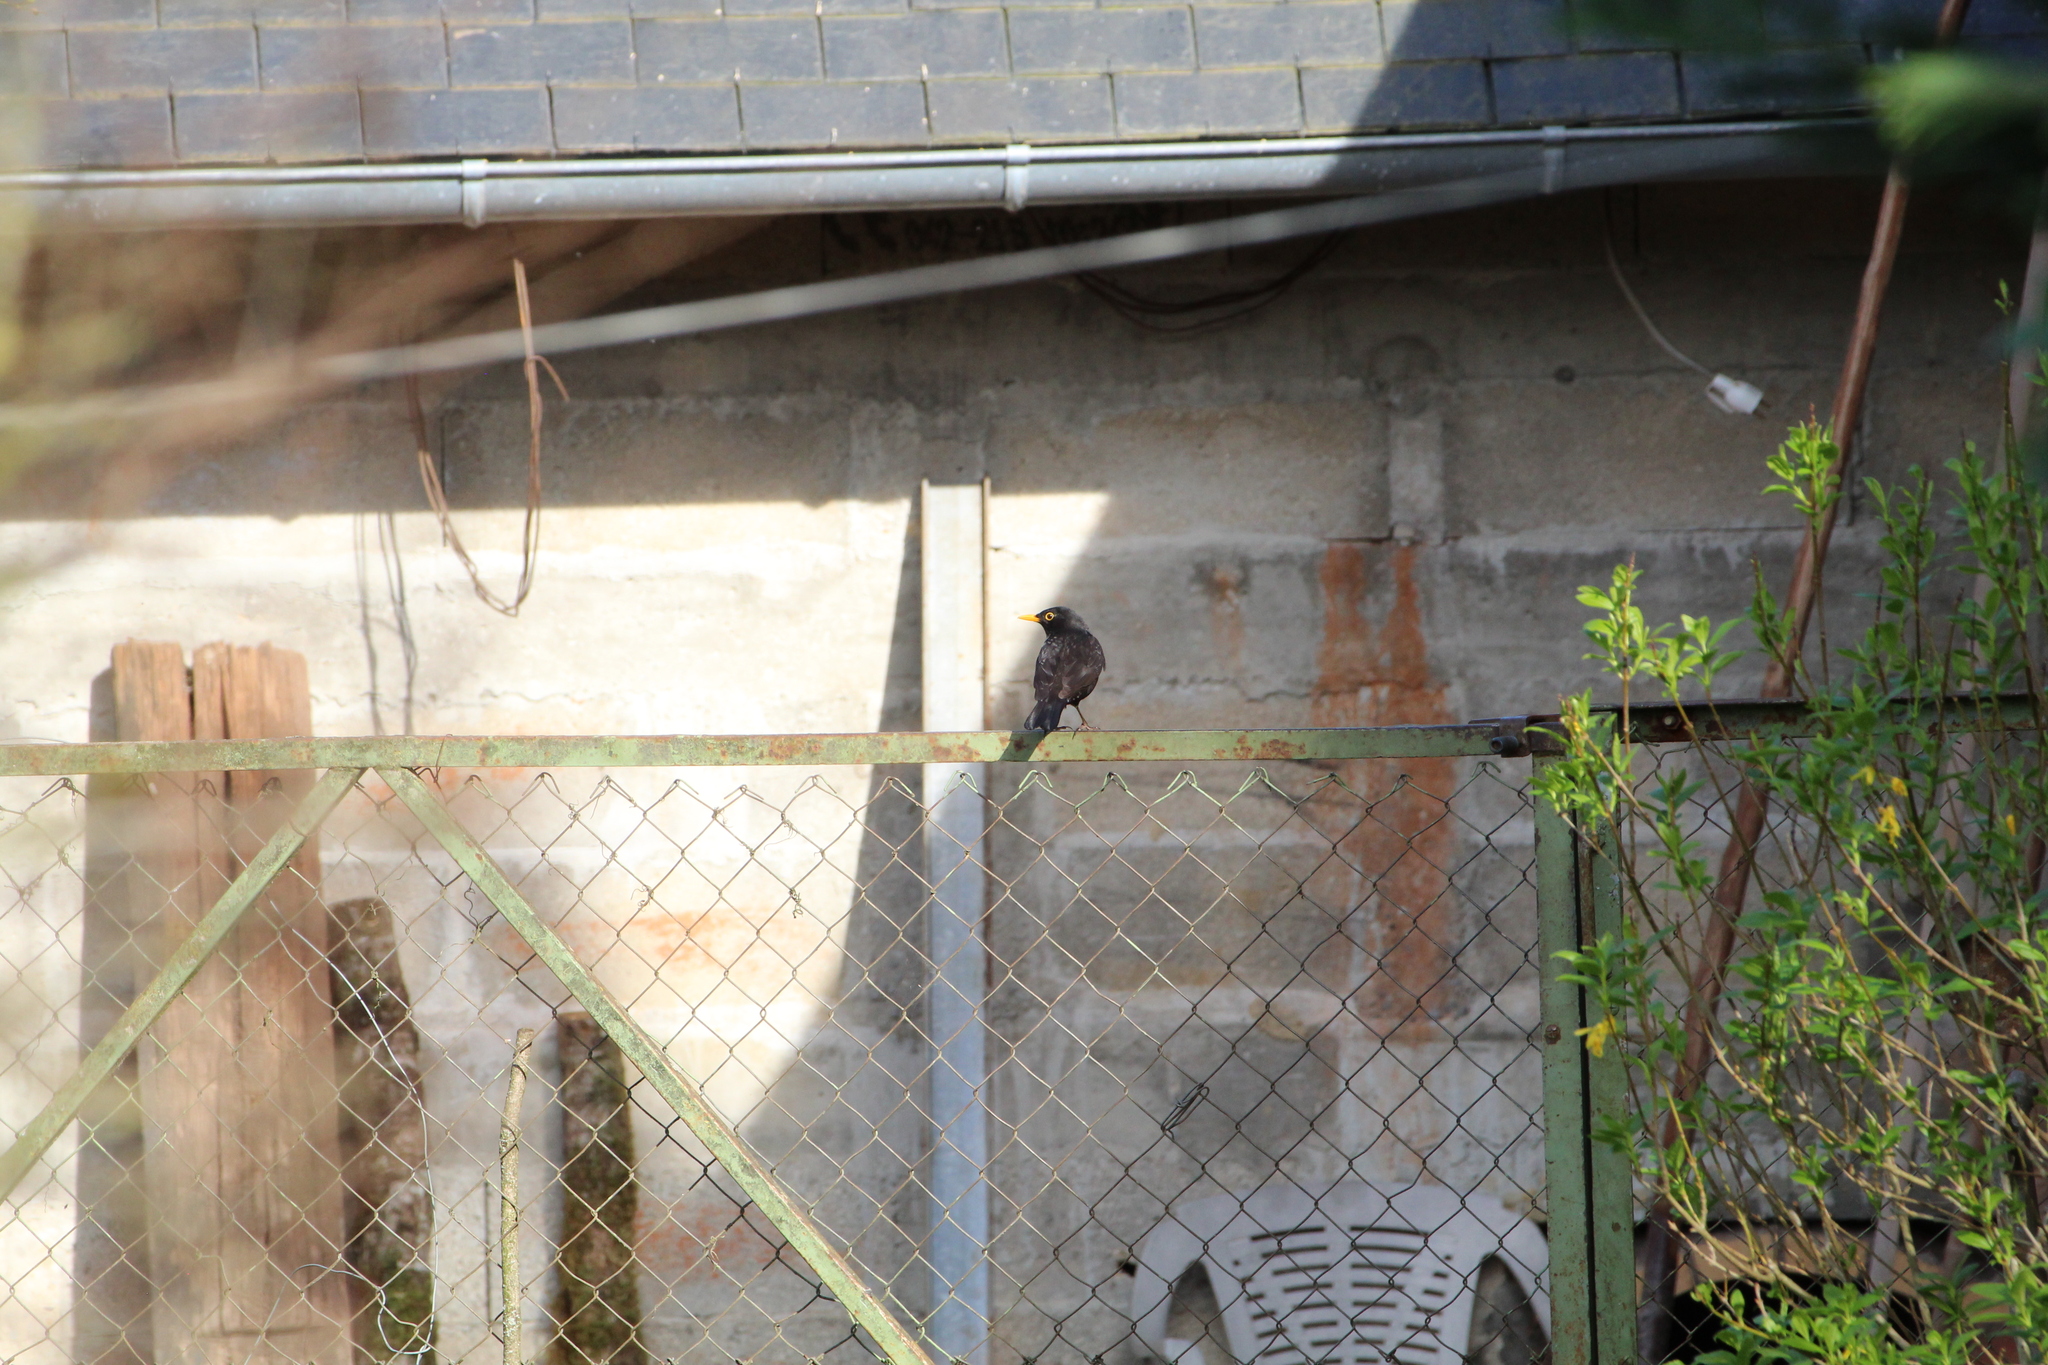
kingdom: Animalia
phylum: Chordata
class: Aves
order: Passeriformes
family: Turdidae
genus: Turdus
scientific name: Turdus merula
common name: Common blackbird
